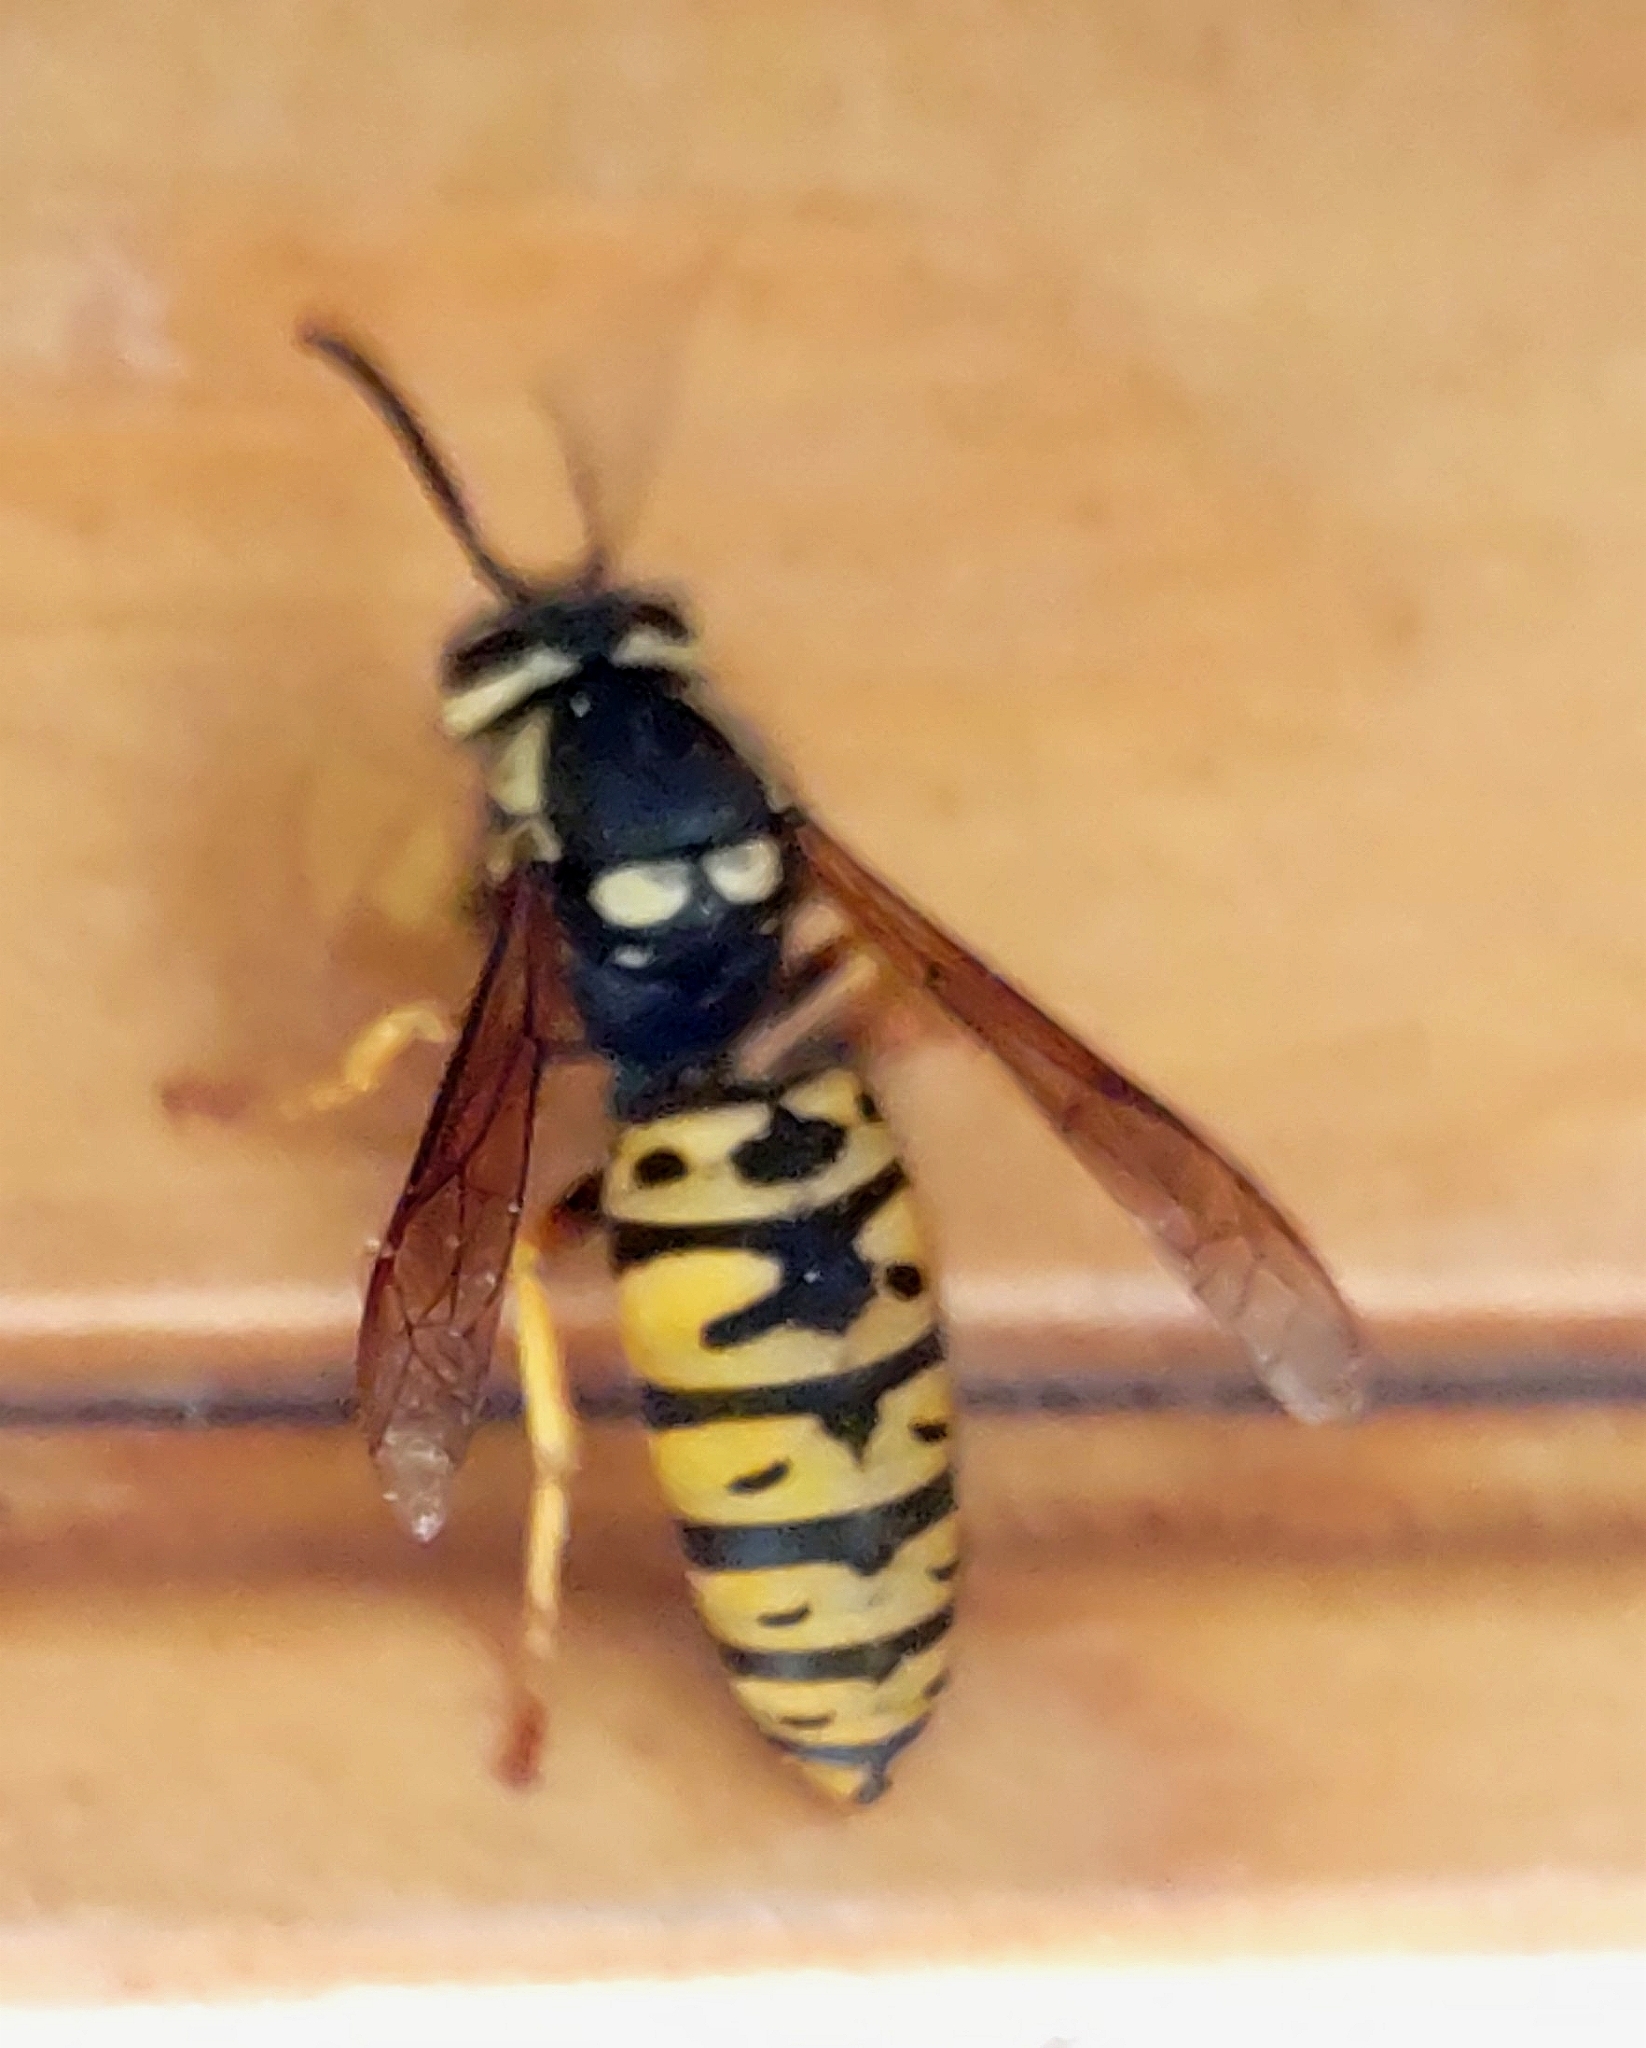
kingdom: Animalia
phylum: Arthropoda
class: Insecta
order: Hymenoptera
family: Vespidae
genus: Vespula
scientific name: Vespula atropilosa
